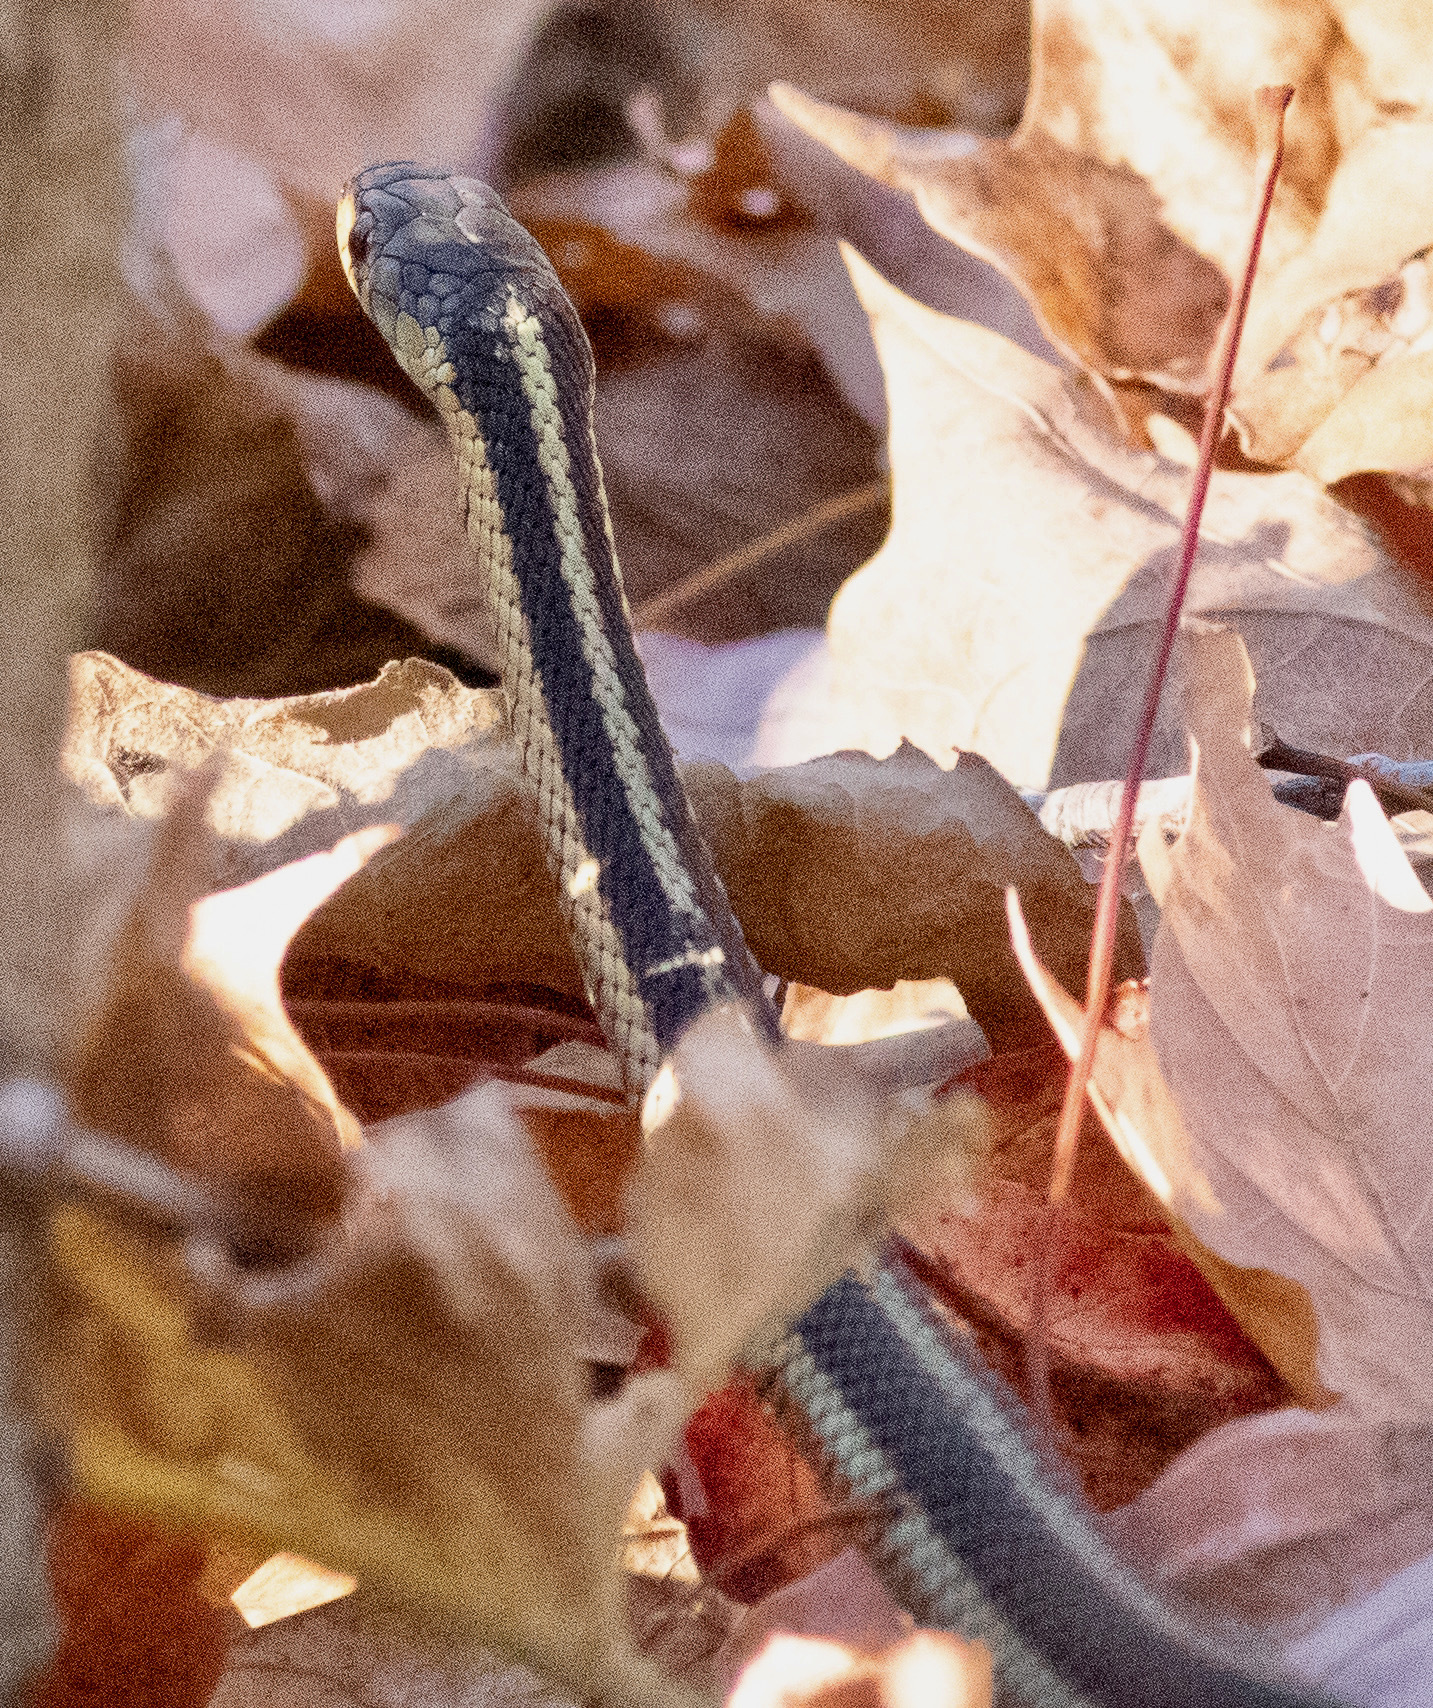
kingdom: Animalia
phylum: Chordata
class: Squamata
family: Colubridae
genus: Thamnophis
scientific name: Thamnophis sirtalis
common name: Common garter snake
